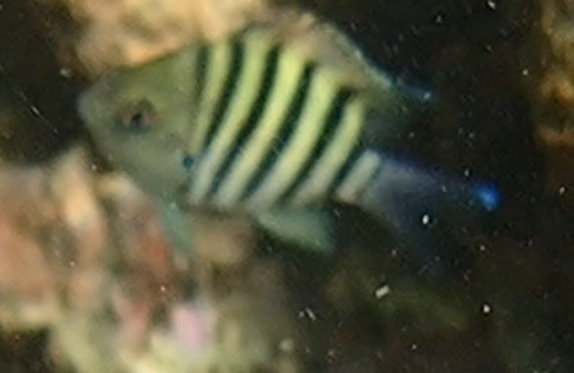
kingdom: Animalia
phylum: Chordata
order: Perciformes
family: Pomacentridae
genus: Abudefduf
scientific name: Abudefduf bengalensis
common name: Bengal sergeant
